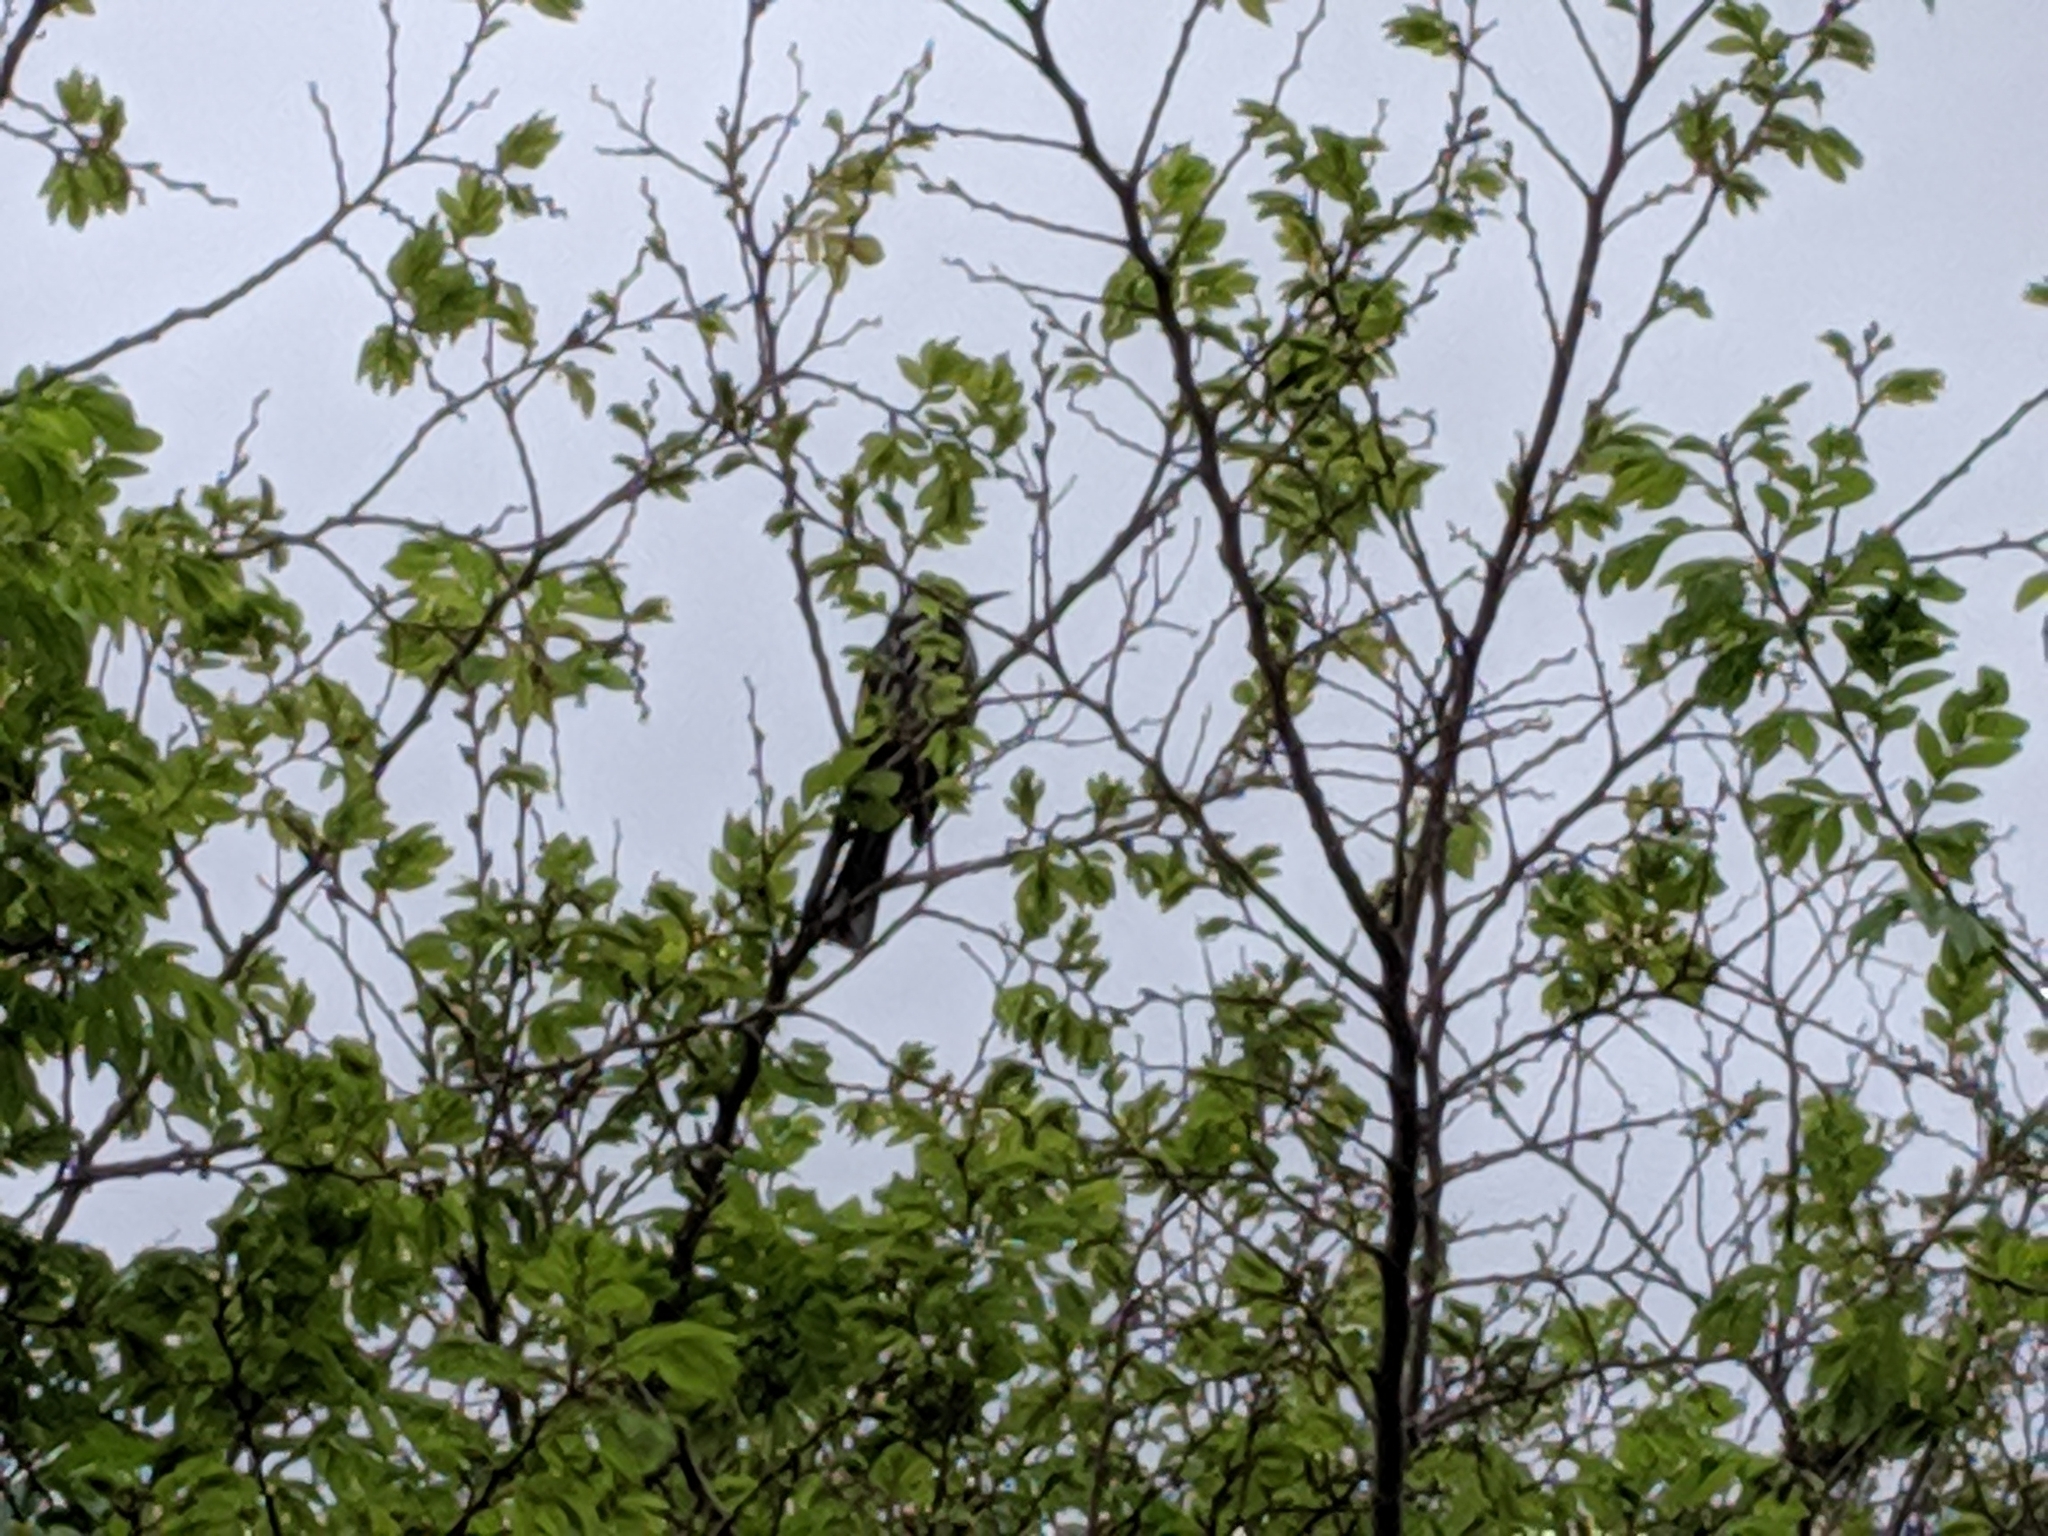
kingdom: Animalia
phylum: Chordata
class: Aves
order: Passeriformes
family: Meliphagidae
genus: Phylidonyris
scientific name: Phylidonyris novaehollandiae
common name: New holland honeyeater
